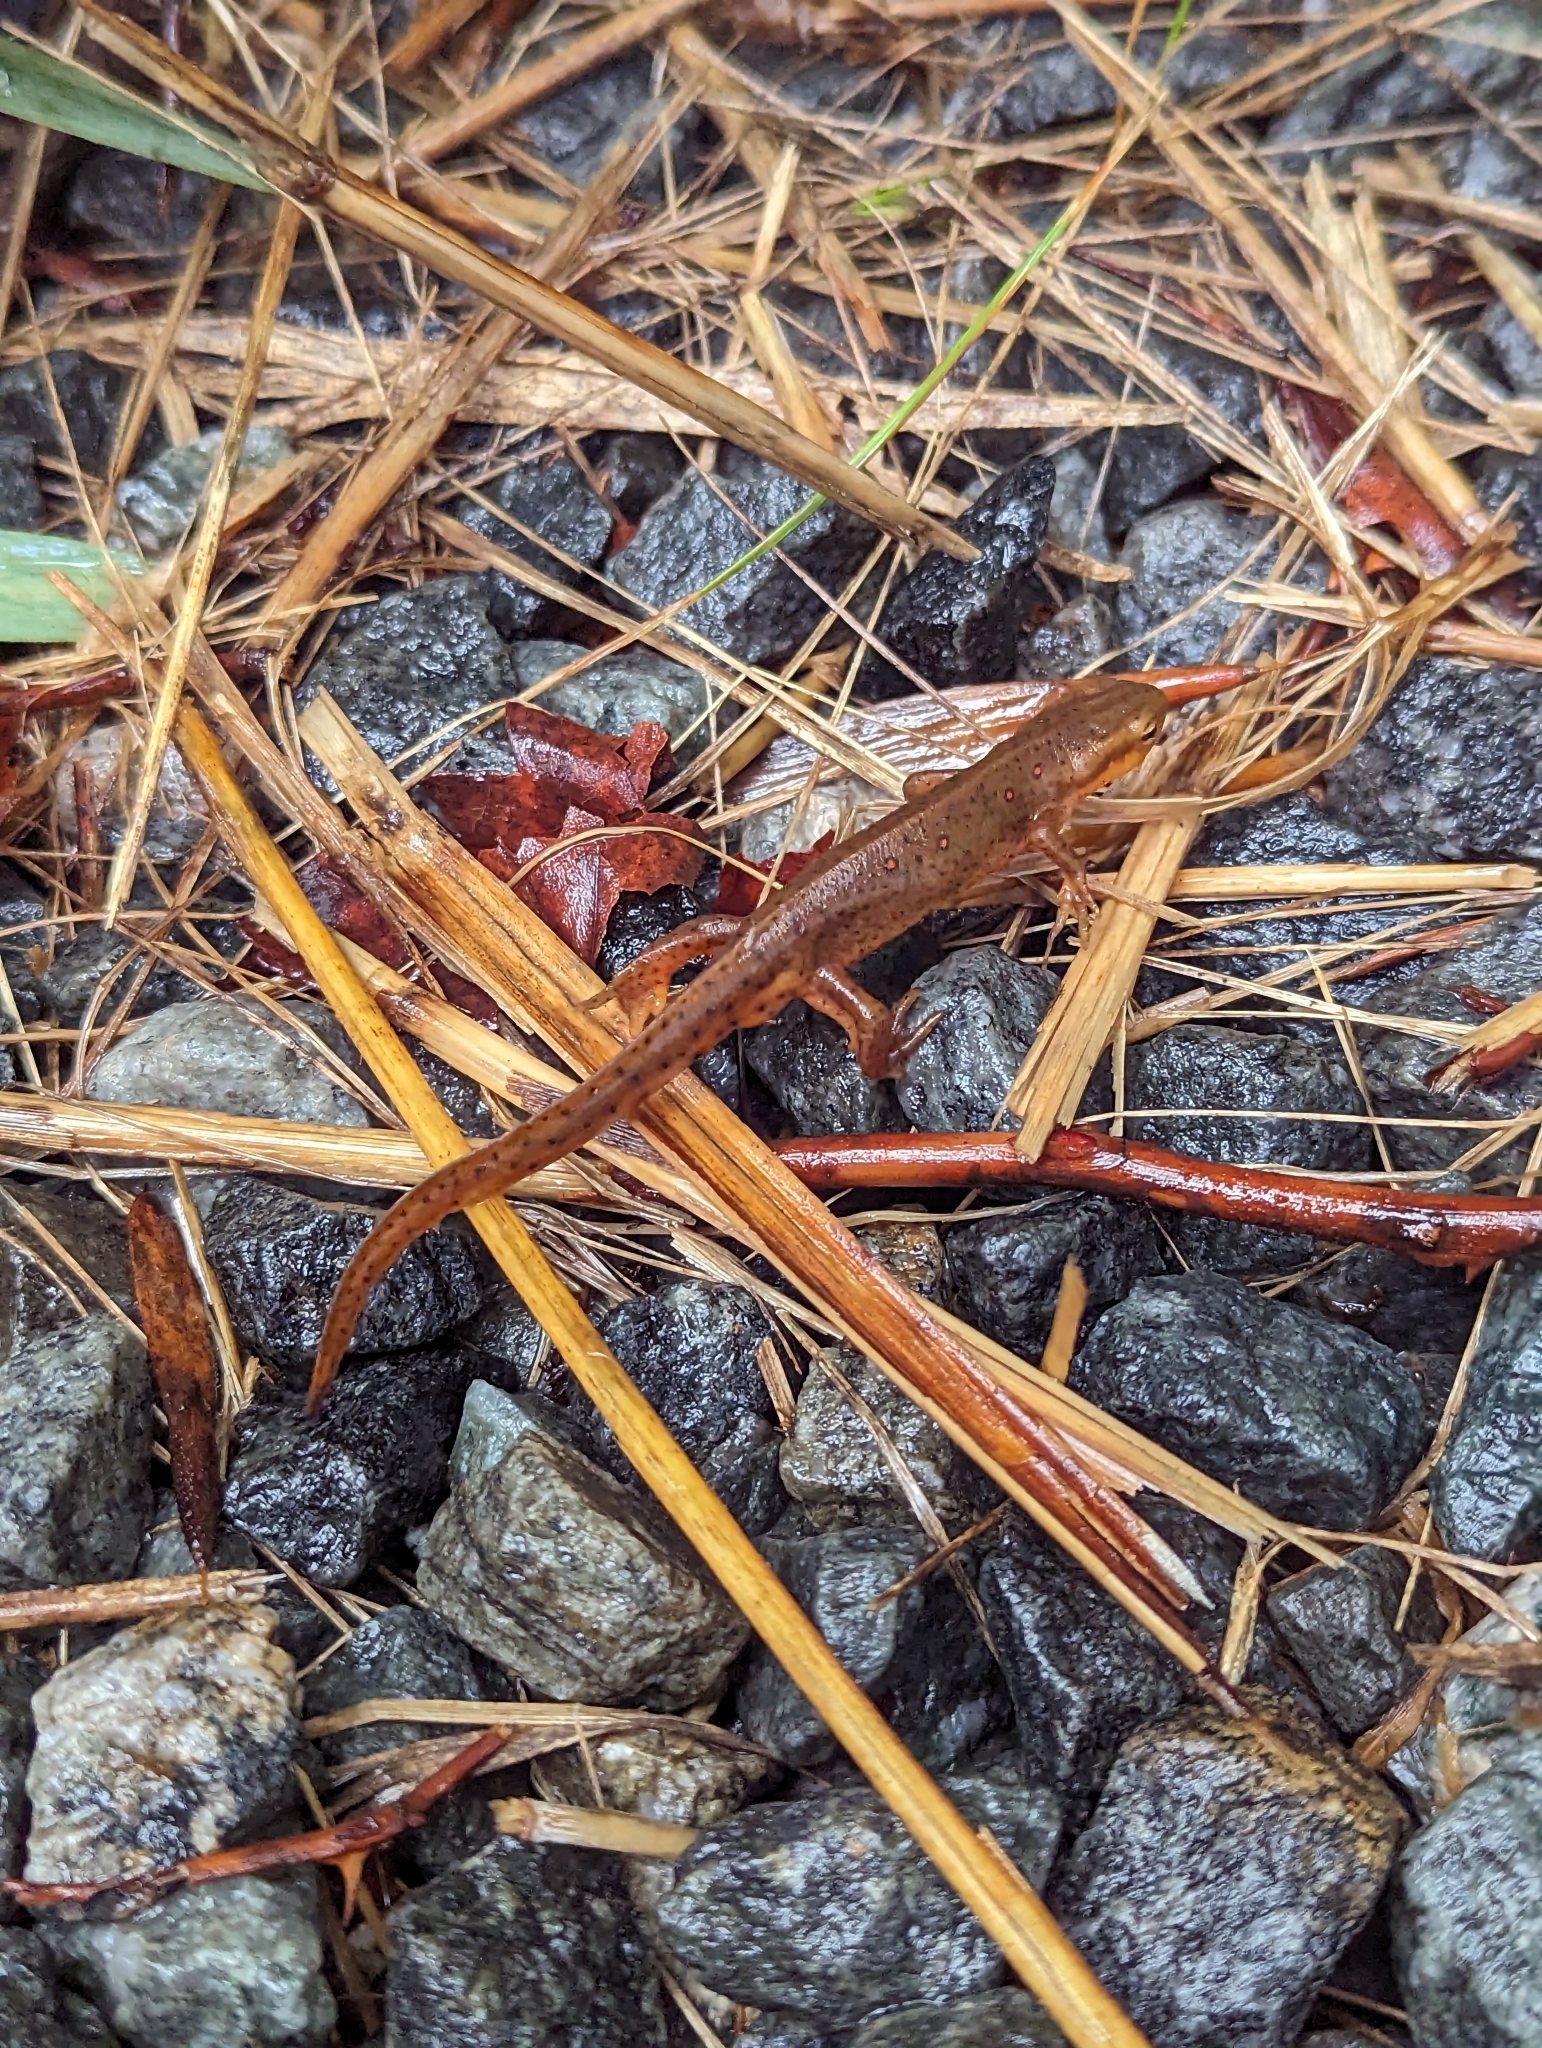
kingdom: Animalia
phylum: Chordata
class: Amphibia
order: Caudata
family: Salamandridae
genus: Notophthalmus
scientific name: Notophthalmus viridescens
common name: Eastern newt
